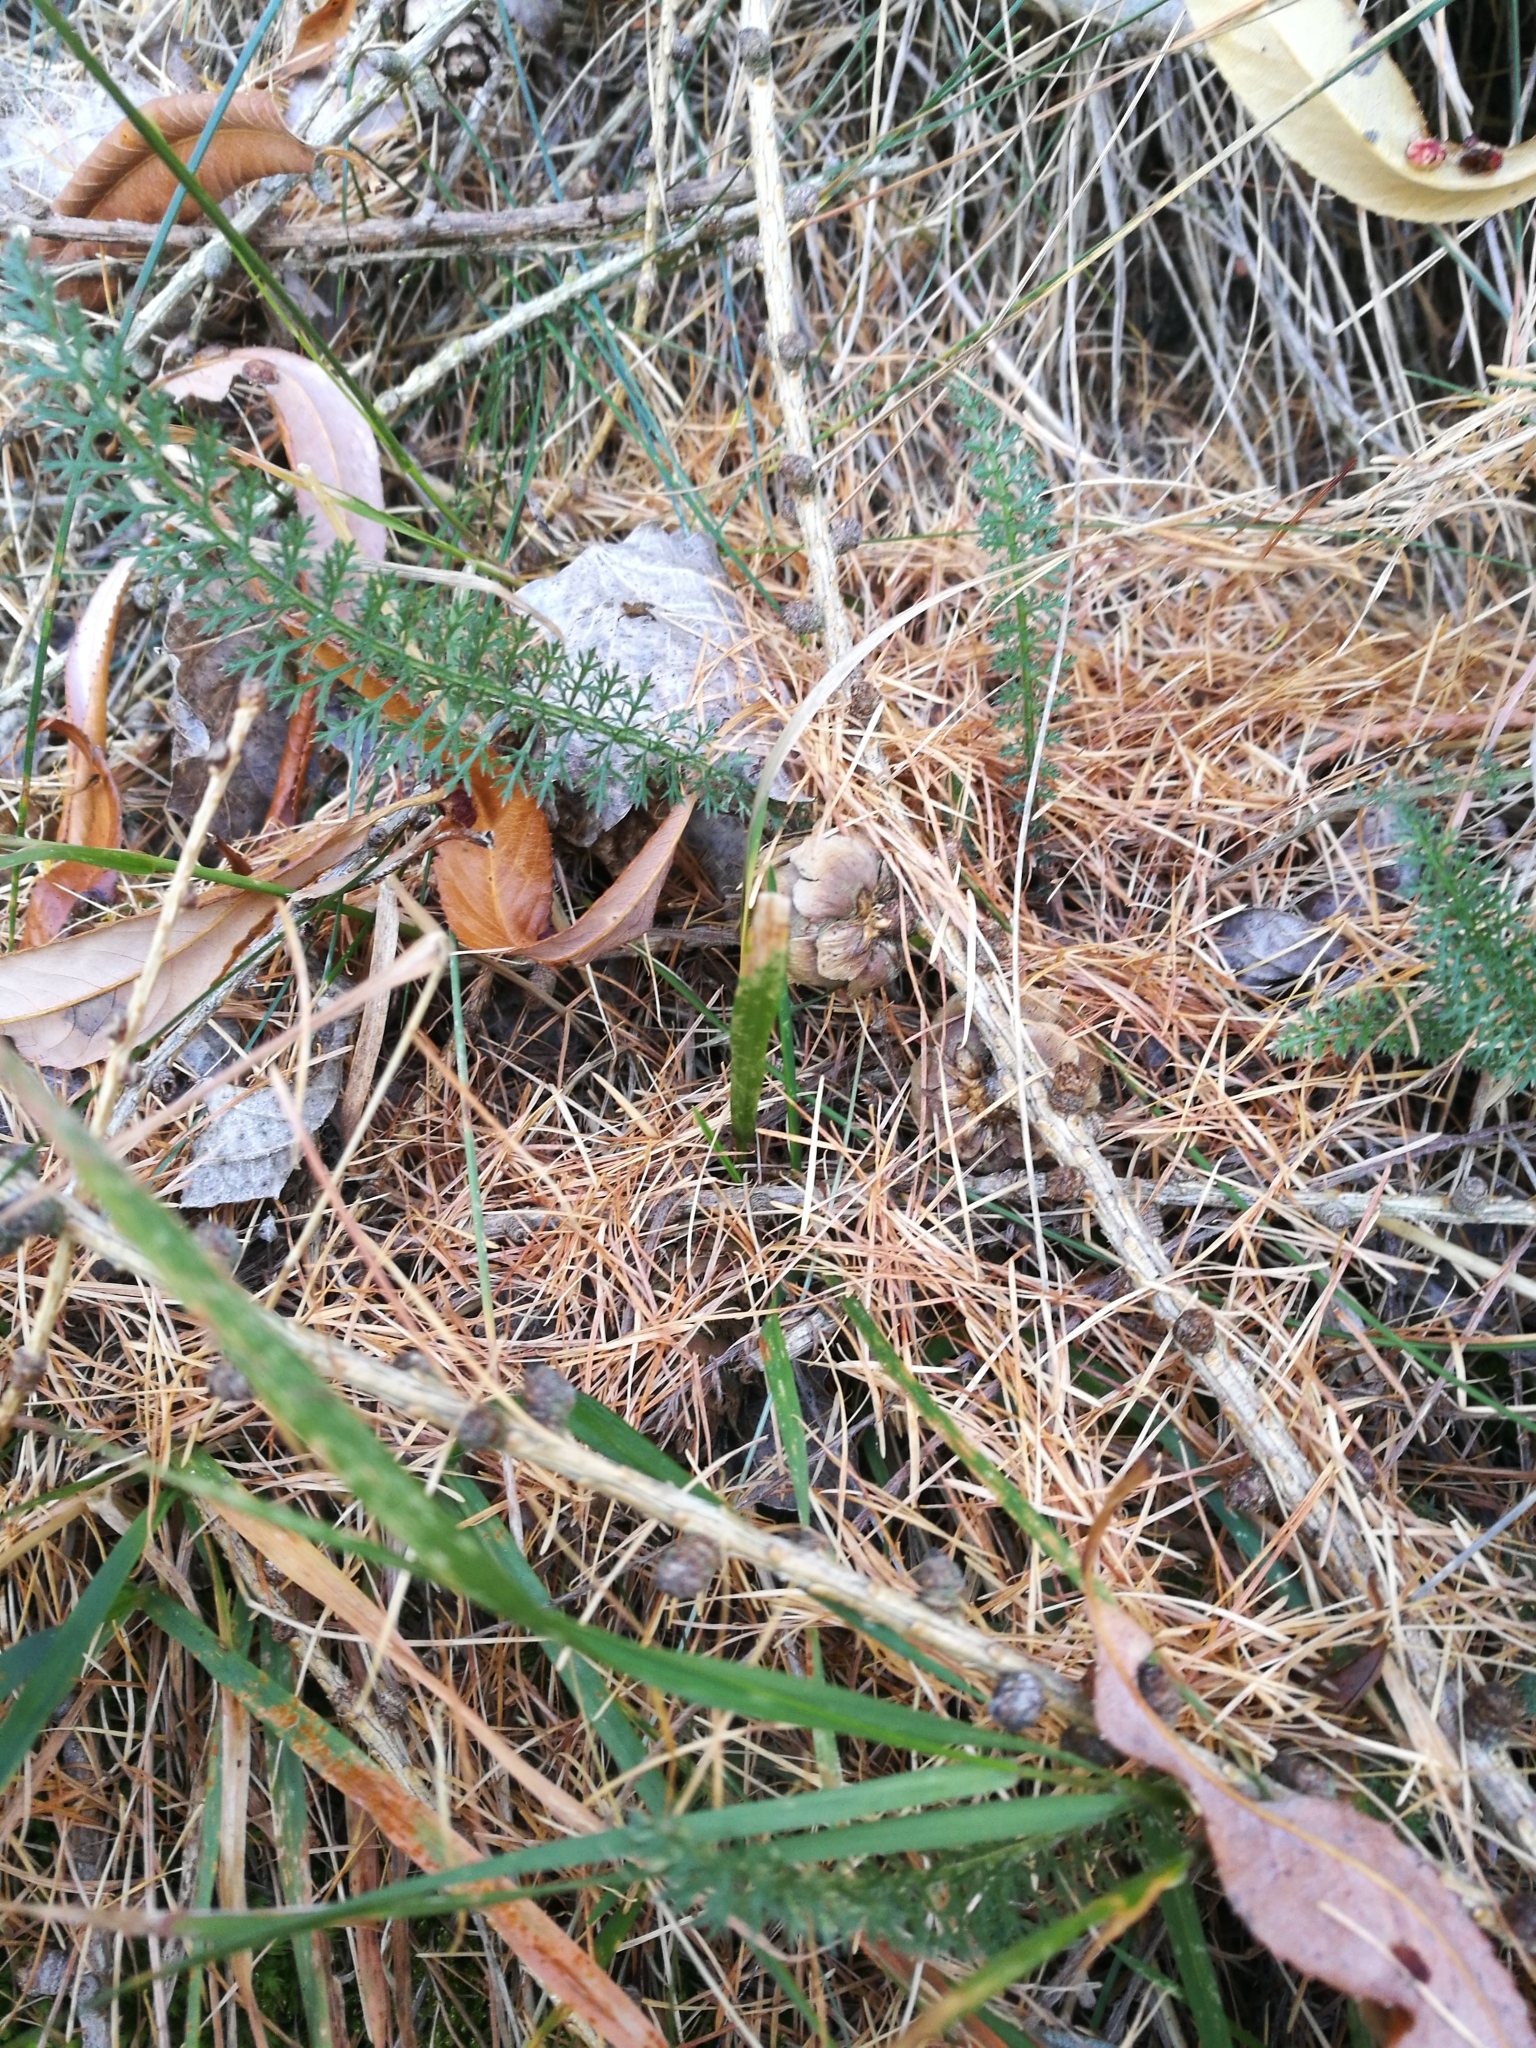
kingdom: Plantae
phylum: Tracheophyta
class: Magnoliopsida
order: Asterales
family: Asteraceae
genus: Achillea
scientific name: Achillea millefolium
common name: Yarrow
